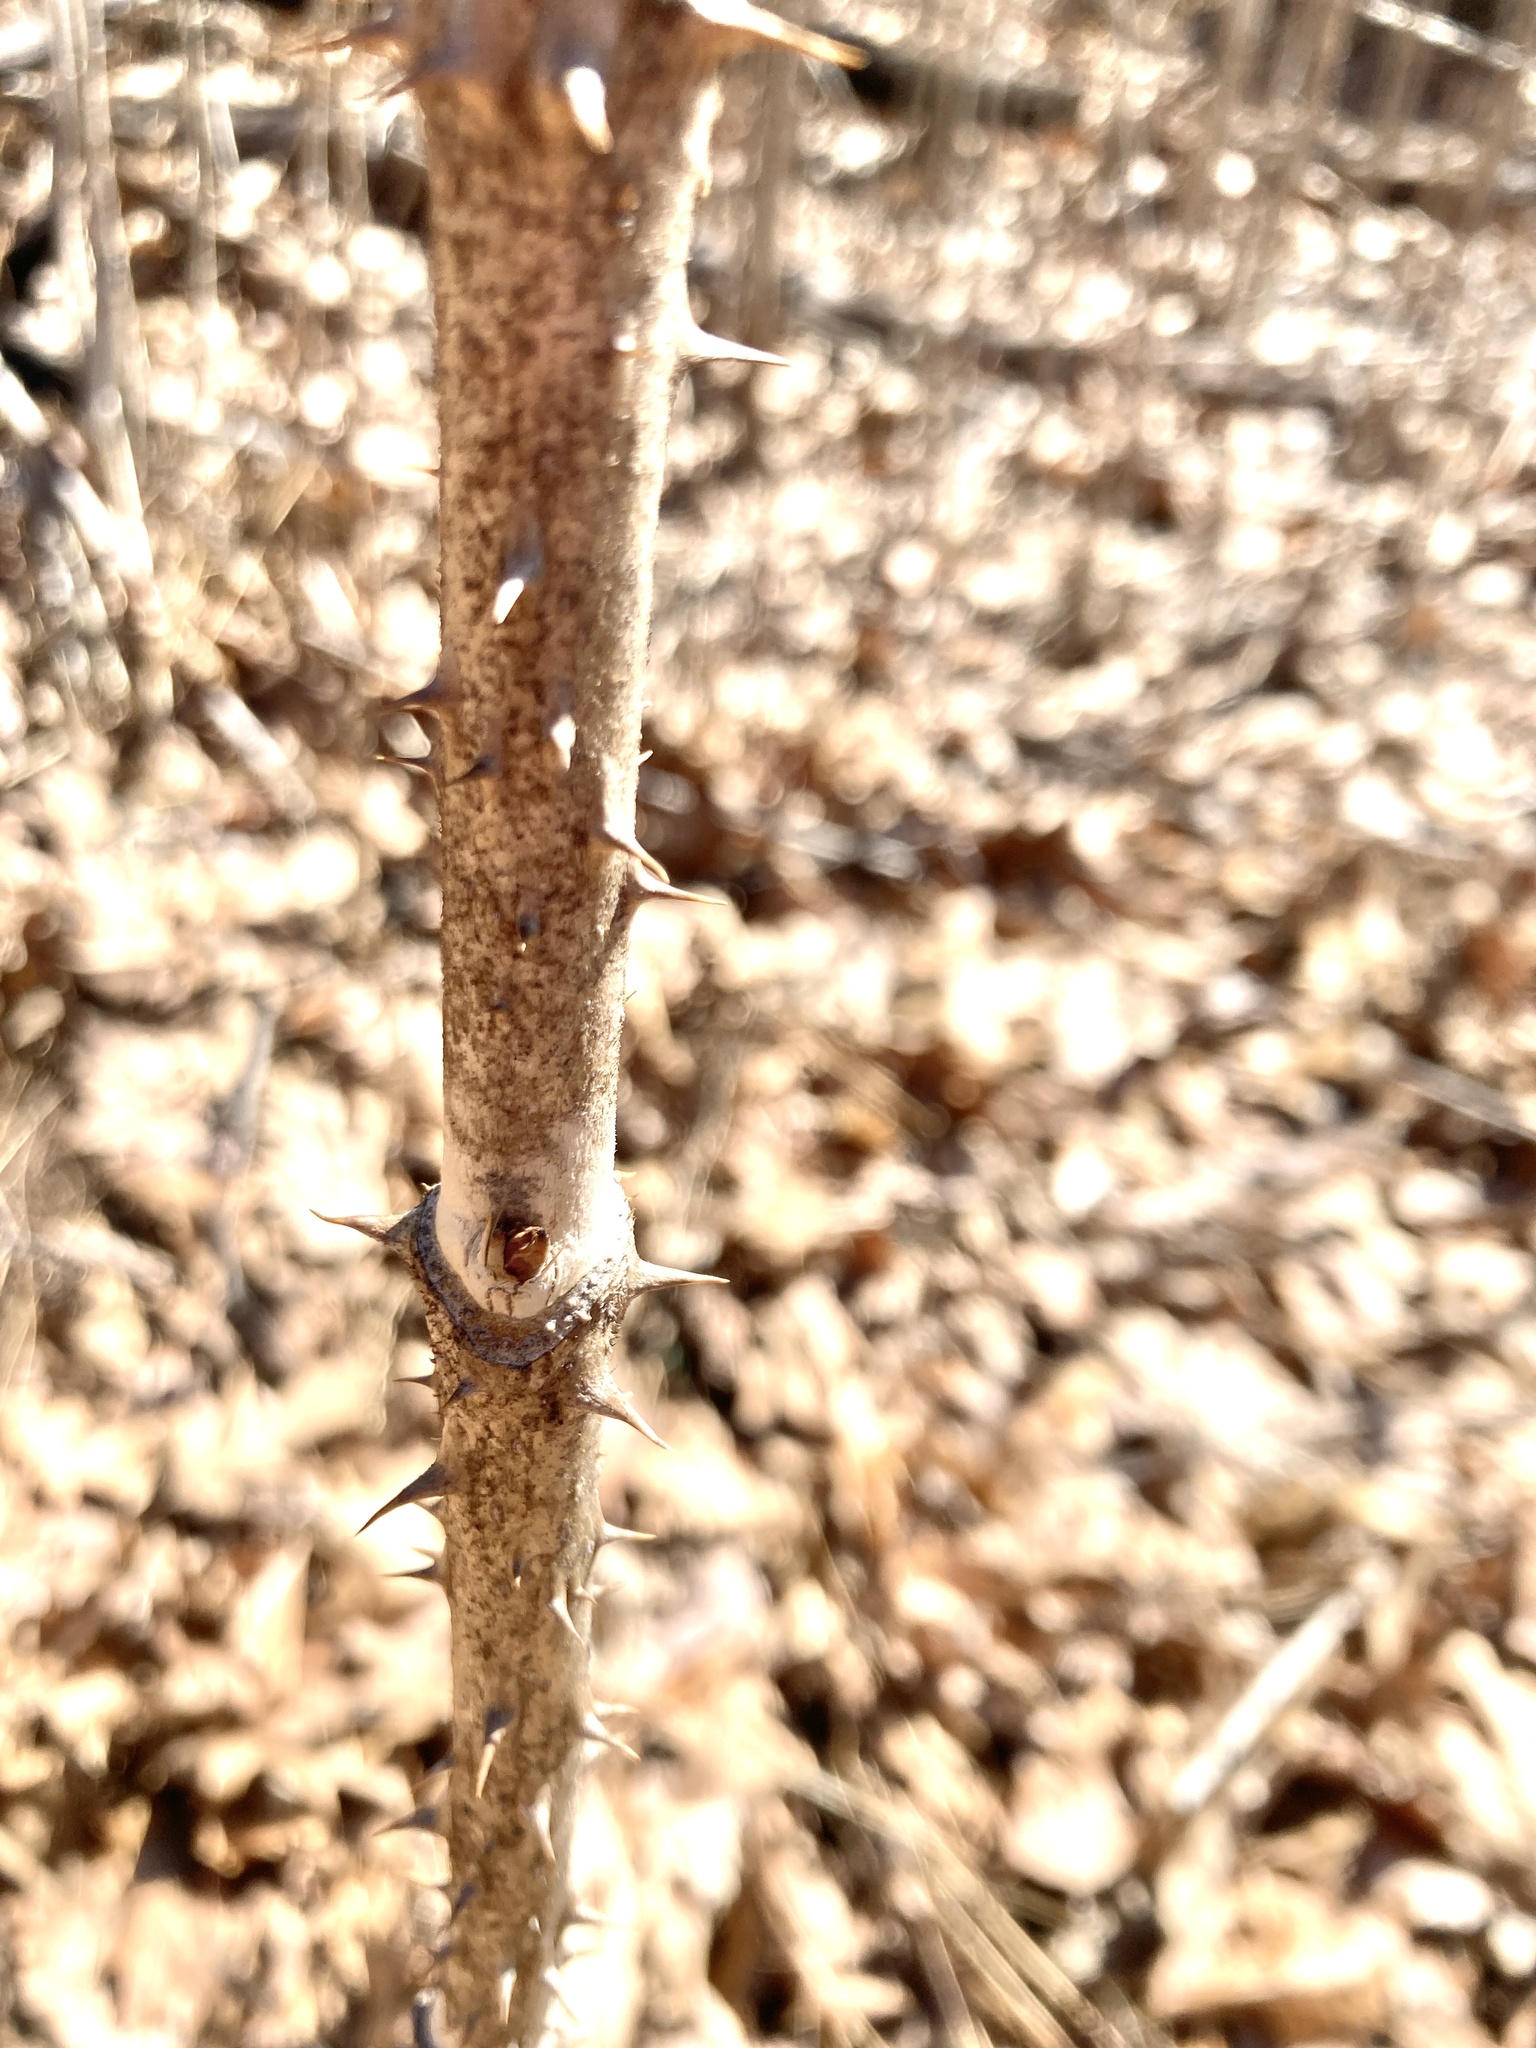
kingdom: Plantae
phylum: Tracheophyta
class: Magnoliopsida
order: Apiales
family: Araliaceae
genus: Aralia
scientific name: Aralia elata
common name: Japanese angelica-tree
